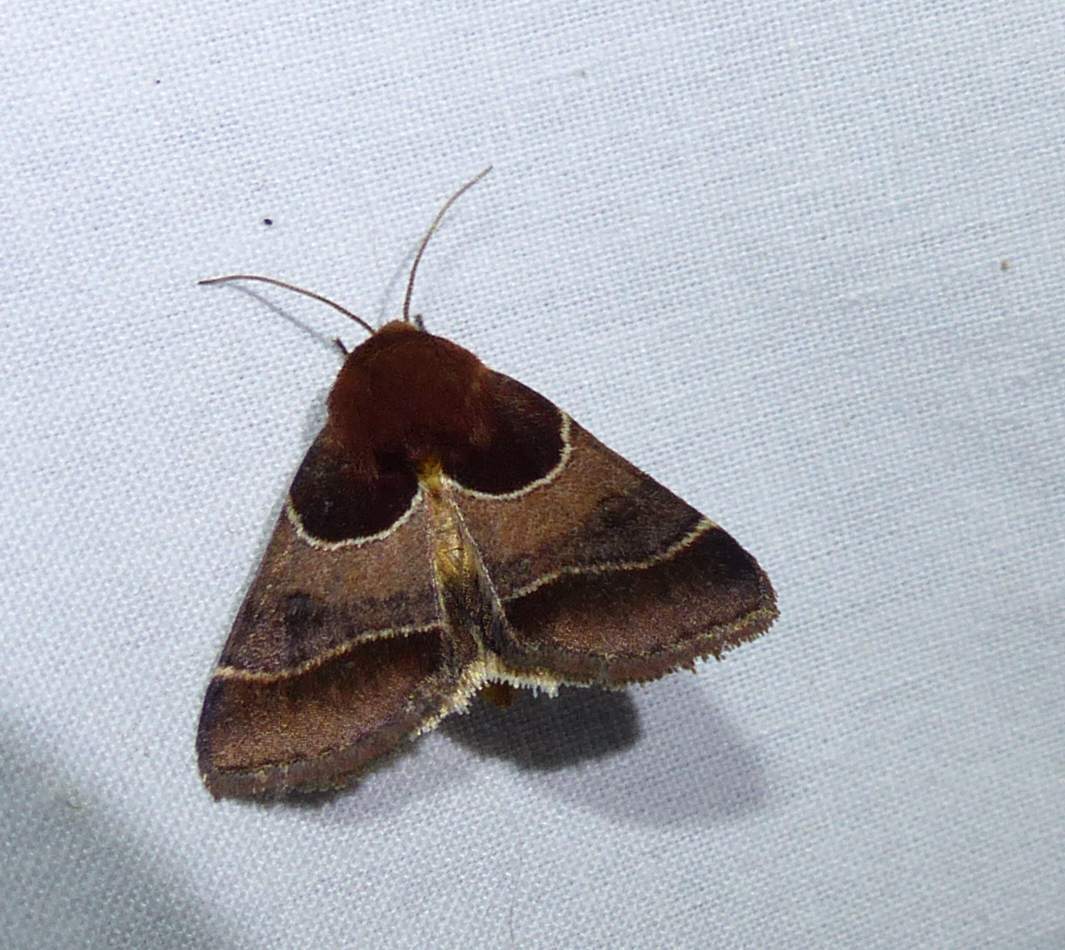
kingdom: Animalia
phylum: Arthropoda
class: Insecta
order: Lepidoptera
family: Noctuidae
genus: Schinia
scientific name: Schinia arcigera
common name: Arcigera flower moth
